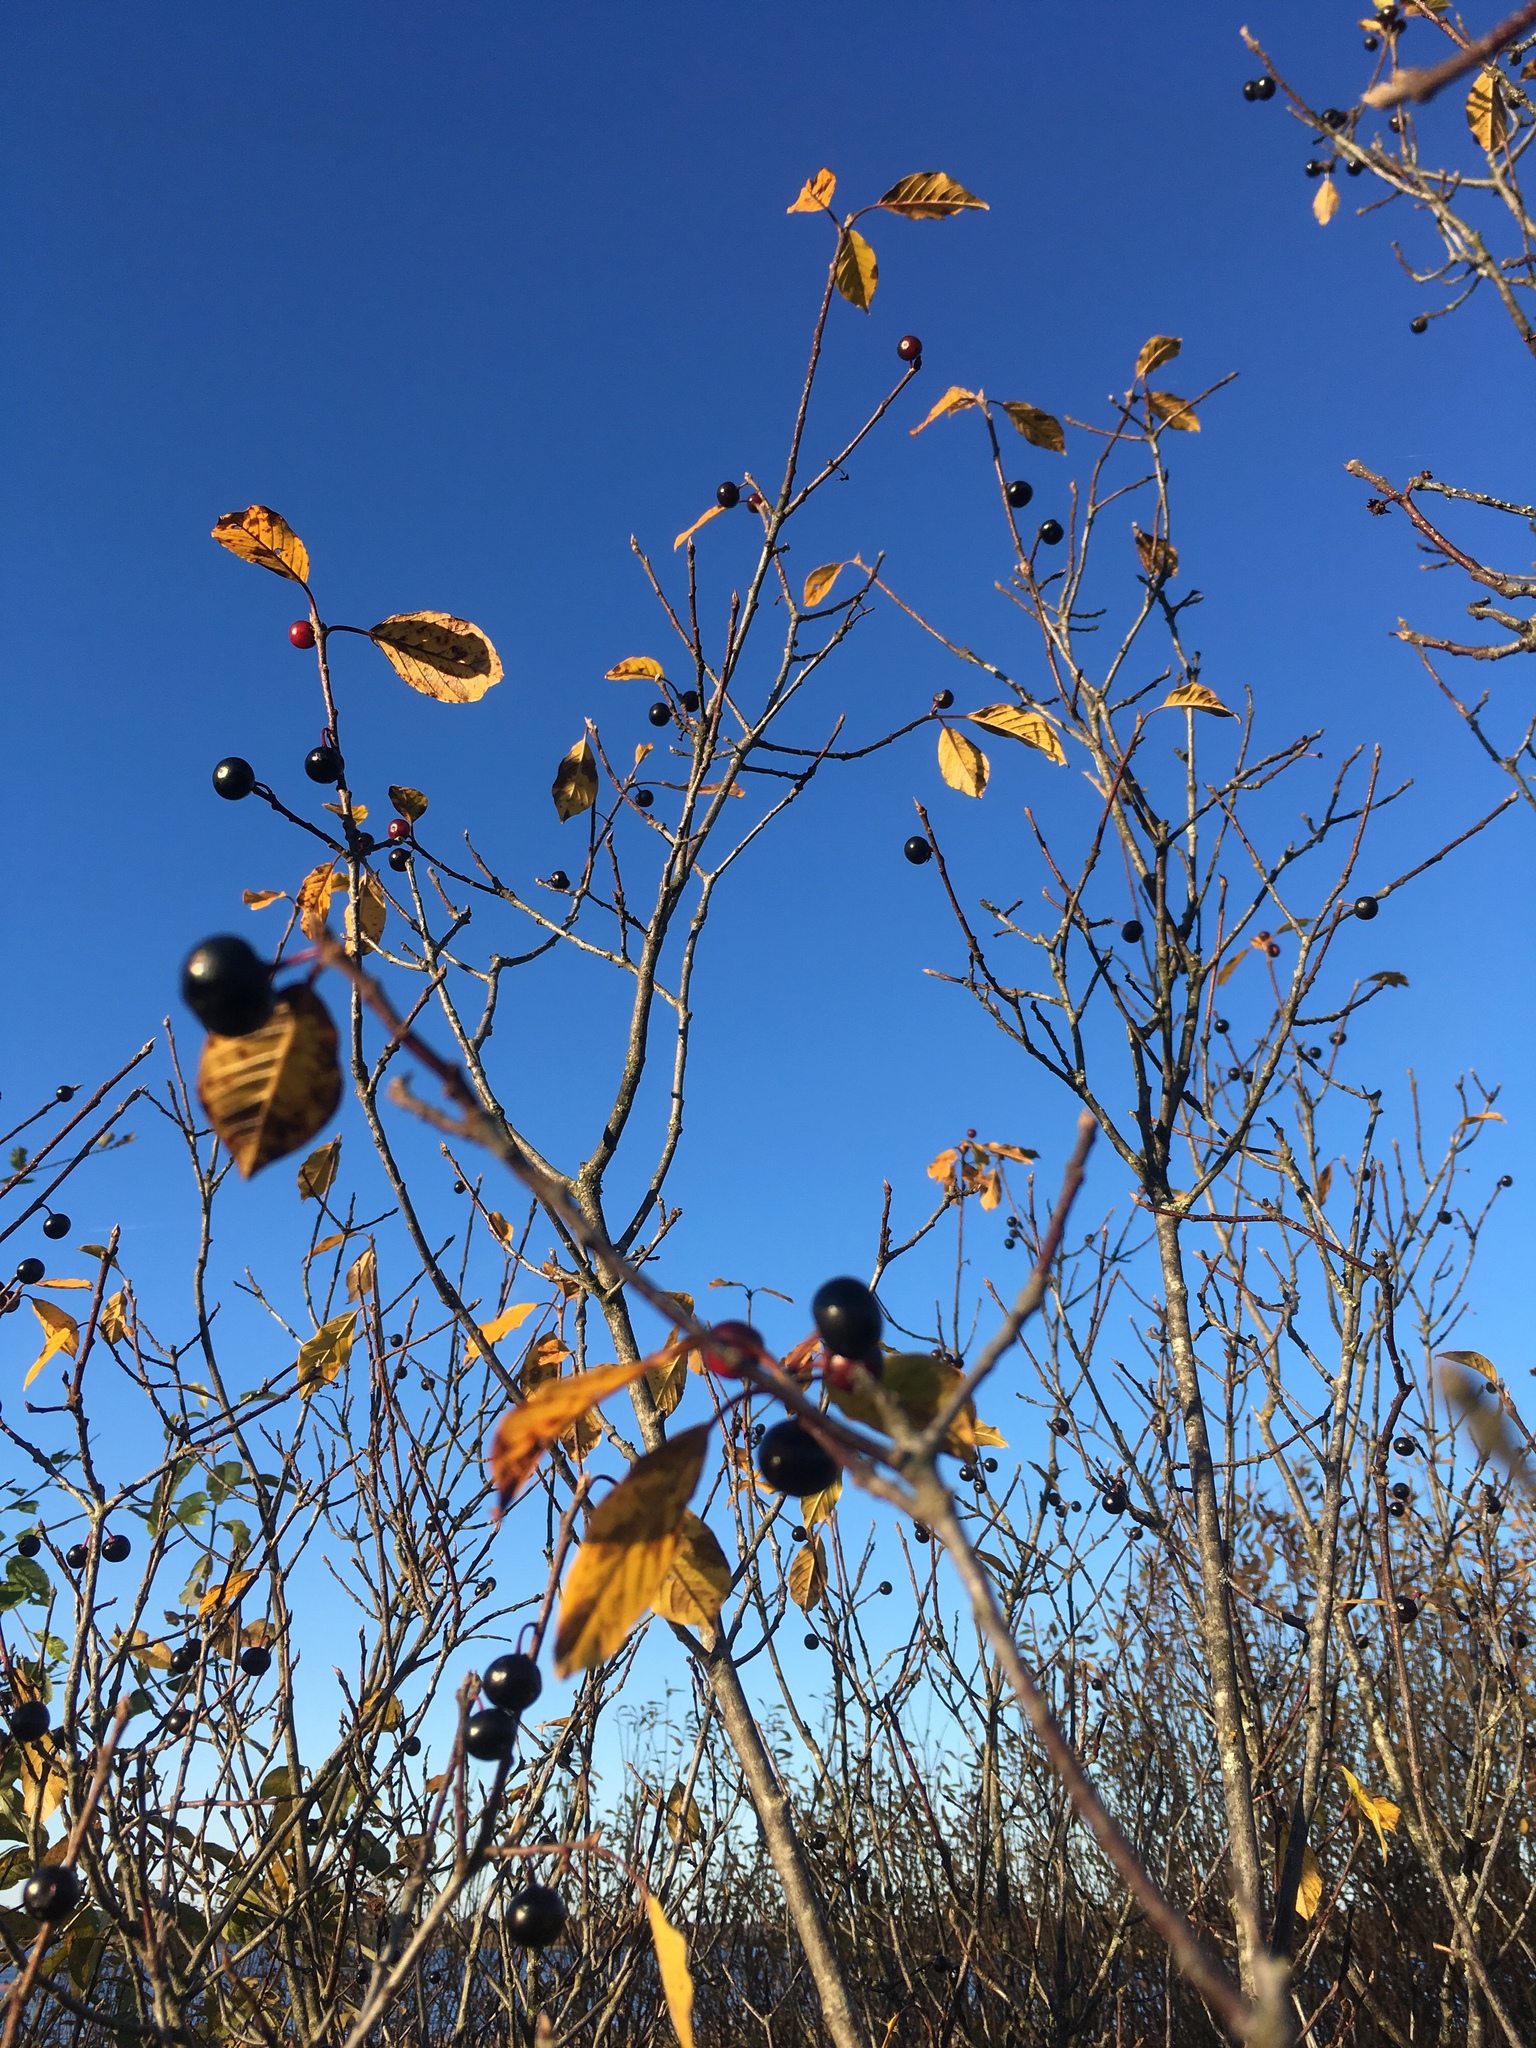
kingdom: Plantae
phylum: Tracheophyta
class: Magnoliopsida
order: Rosales
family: Rhamnaceae
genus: Frangula
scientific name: Frangula alnus
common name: Alder buckthorn
